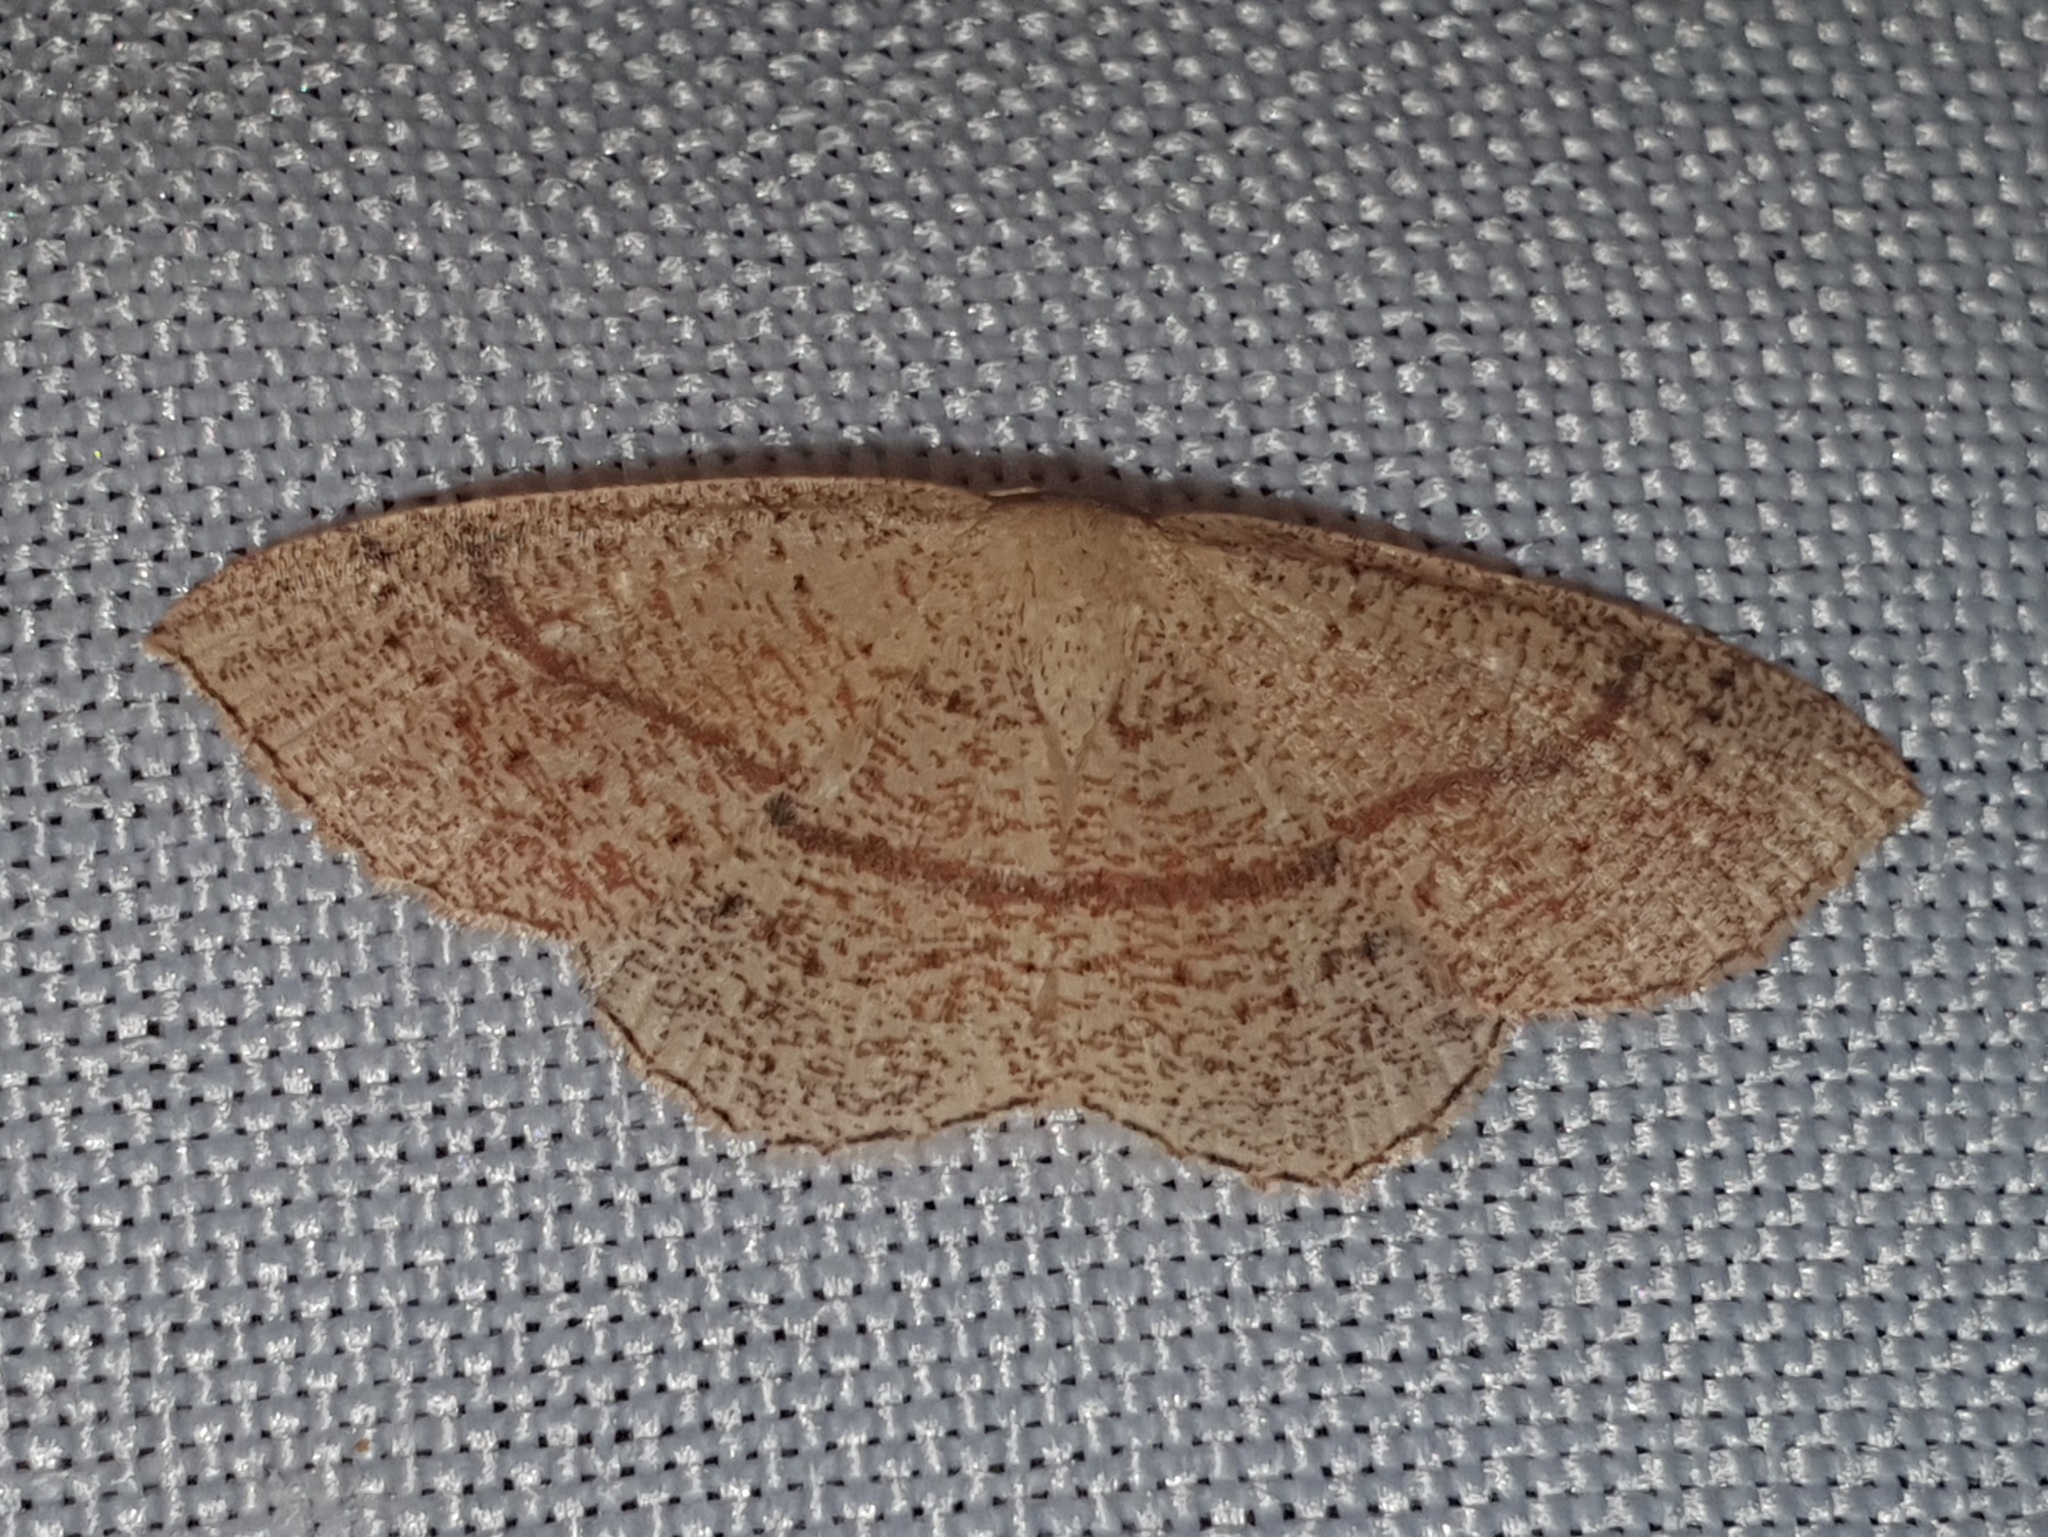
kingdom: Animalia
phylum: Arthropoda
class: Insecta
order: Lepidoptera
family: Geometridae
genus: Cyclophora
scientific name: Cyclophora punctaria
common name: Maiden's blush
